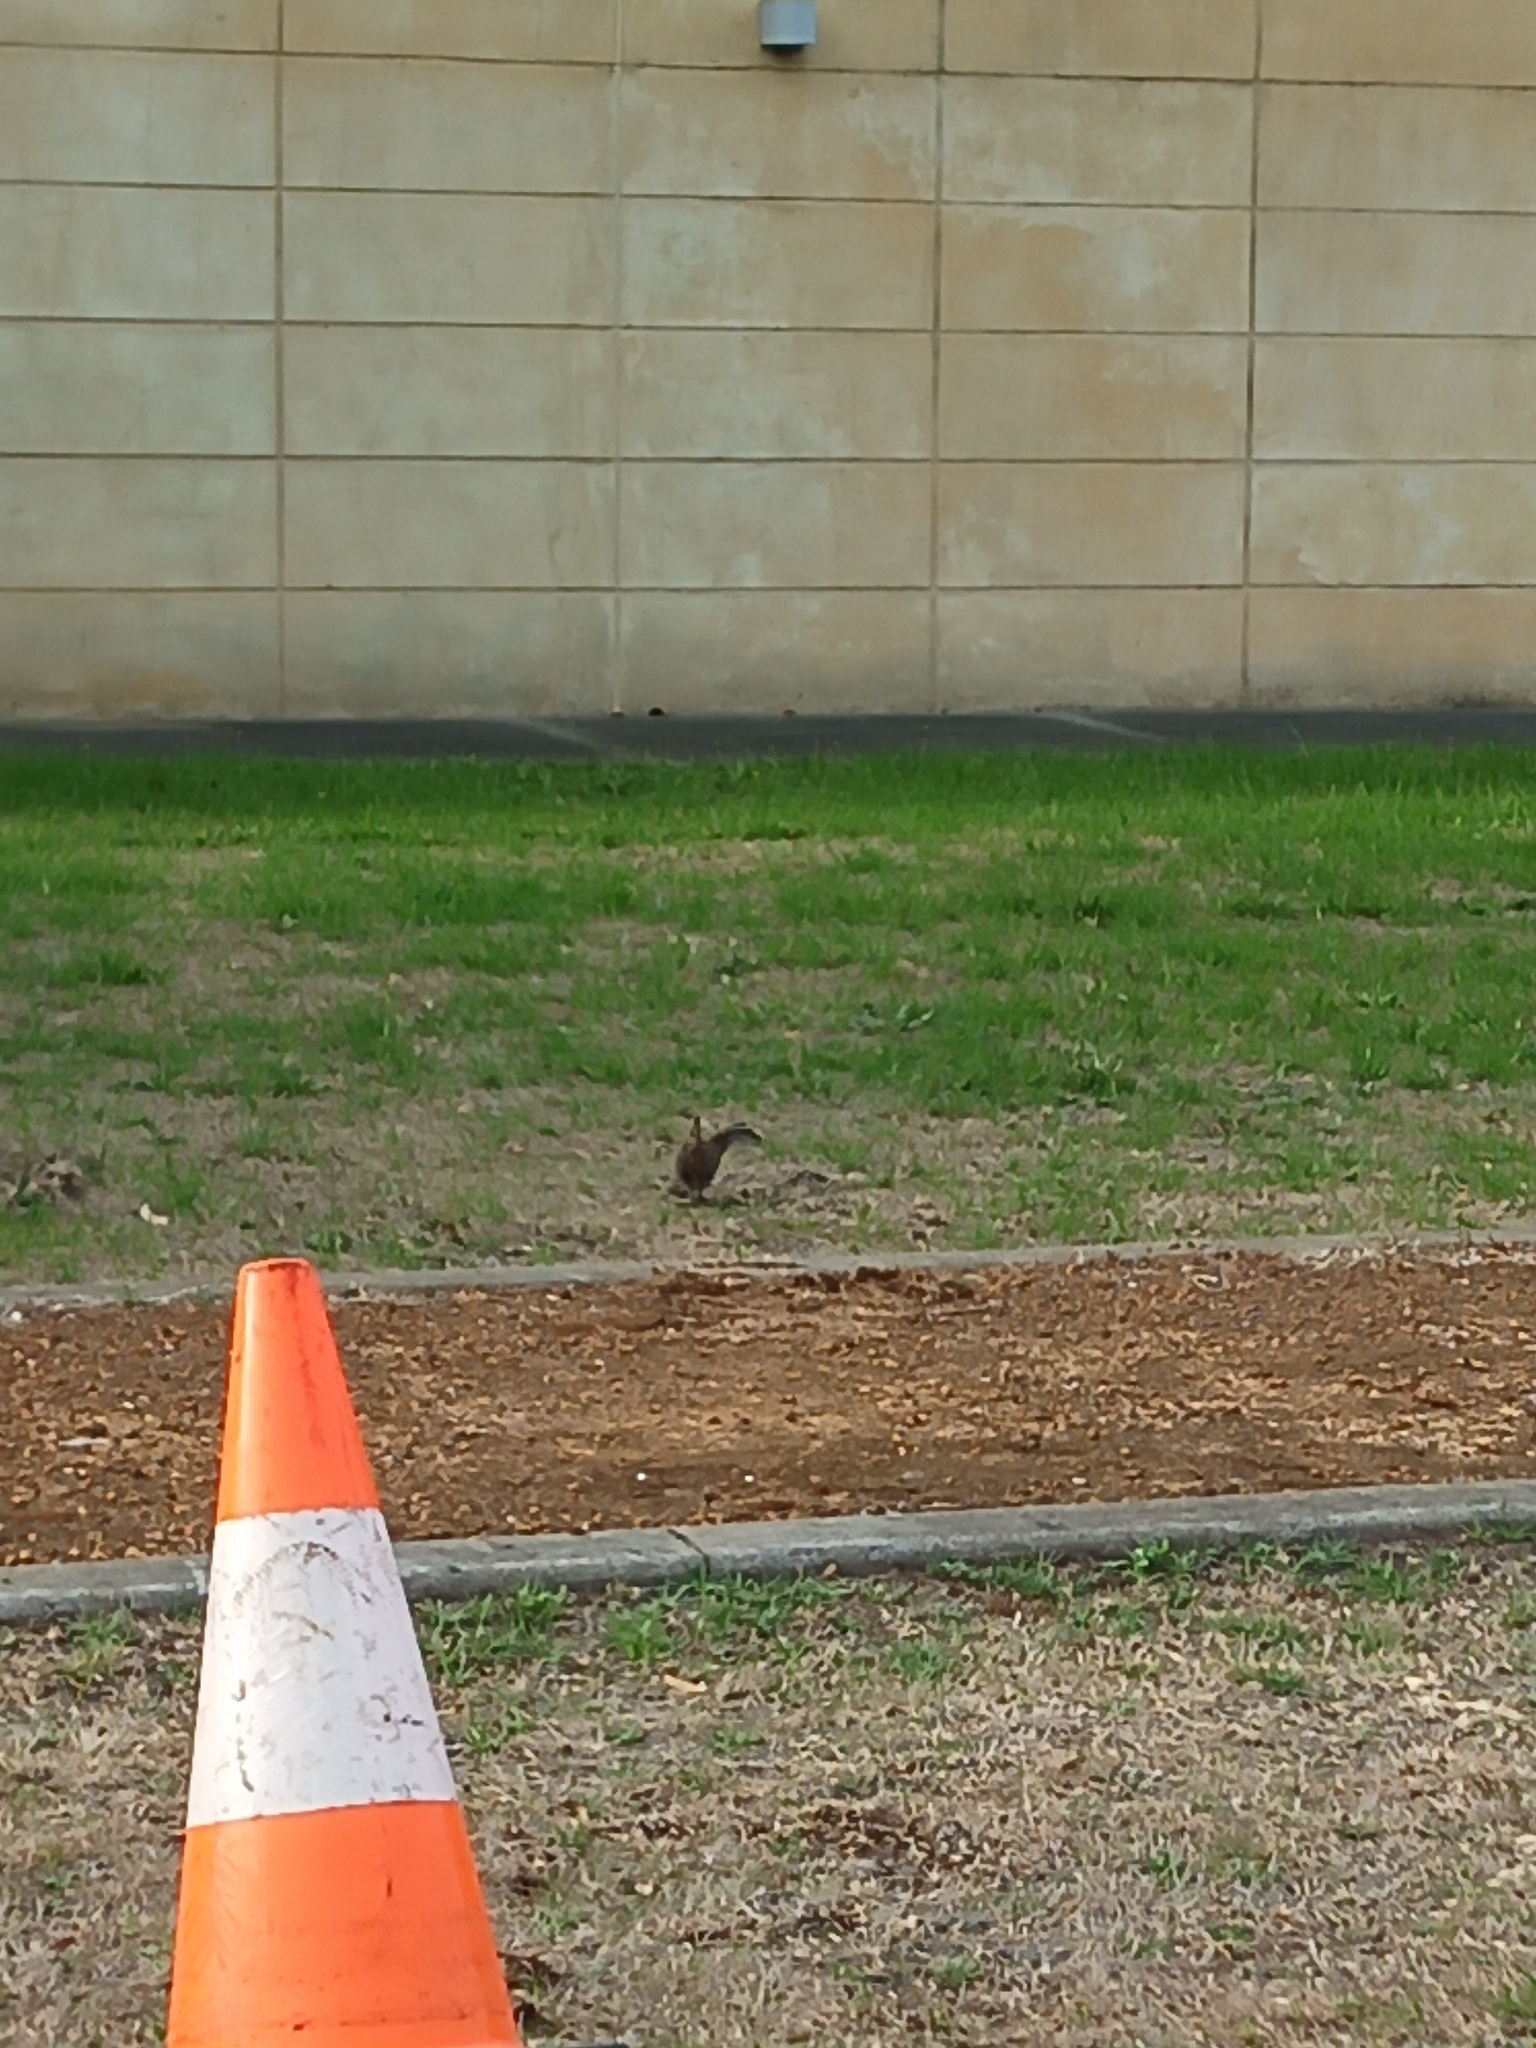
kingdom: Animalia
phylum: Chordata
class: Aves
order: Gruiformes
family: Rallidae
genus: Gallirallus
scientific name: Gallirallus philippensis
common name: Buff-banded rail
